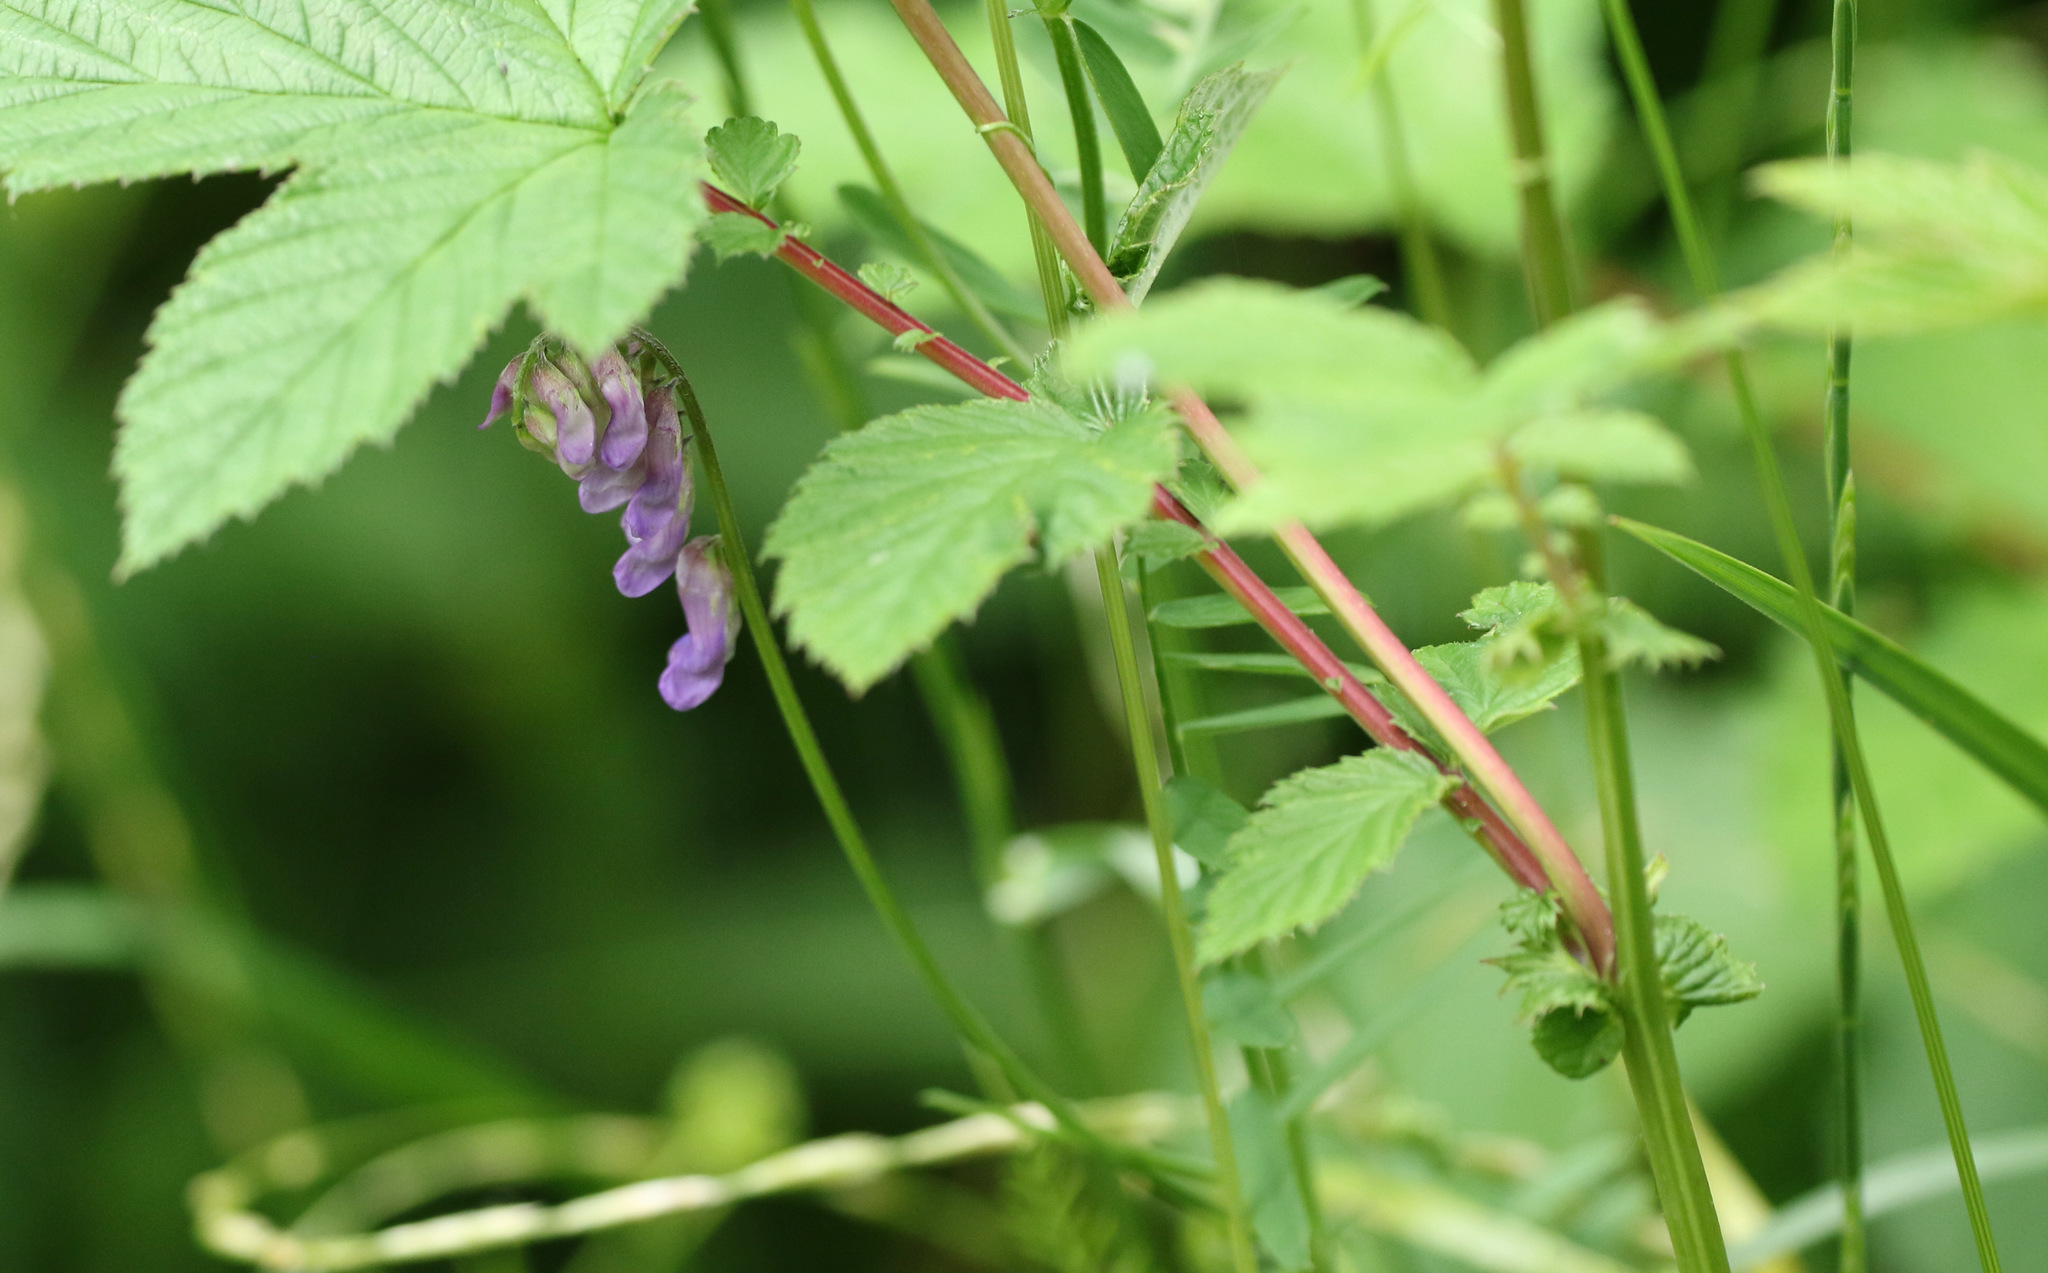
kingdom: Plantae
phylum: Tracheophyta
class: Magnoliopsida
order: Fabales
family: Fabaceae
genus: Vicia
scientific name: Vicia cracca
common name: Bird vetch
